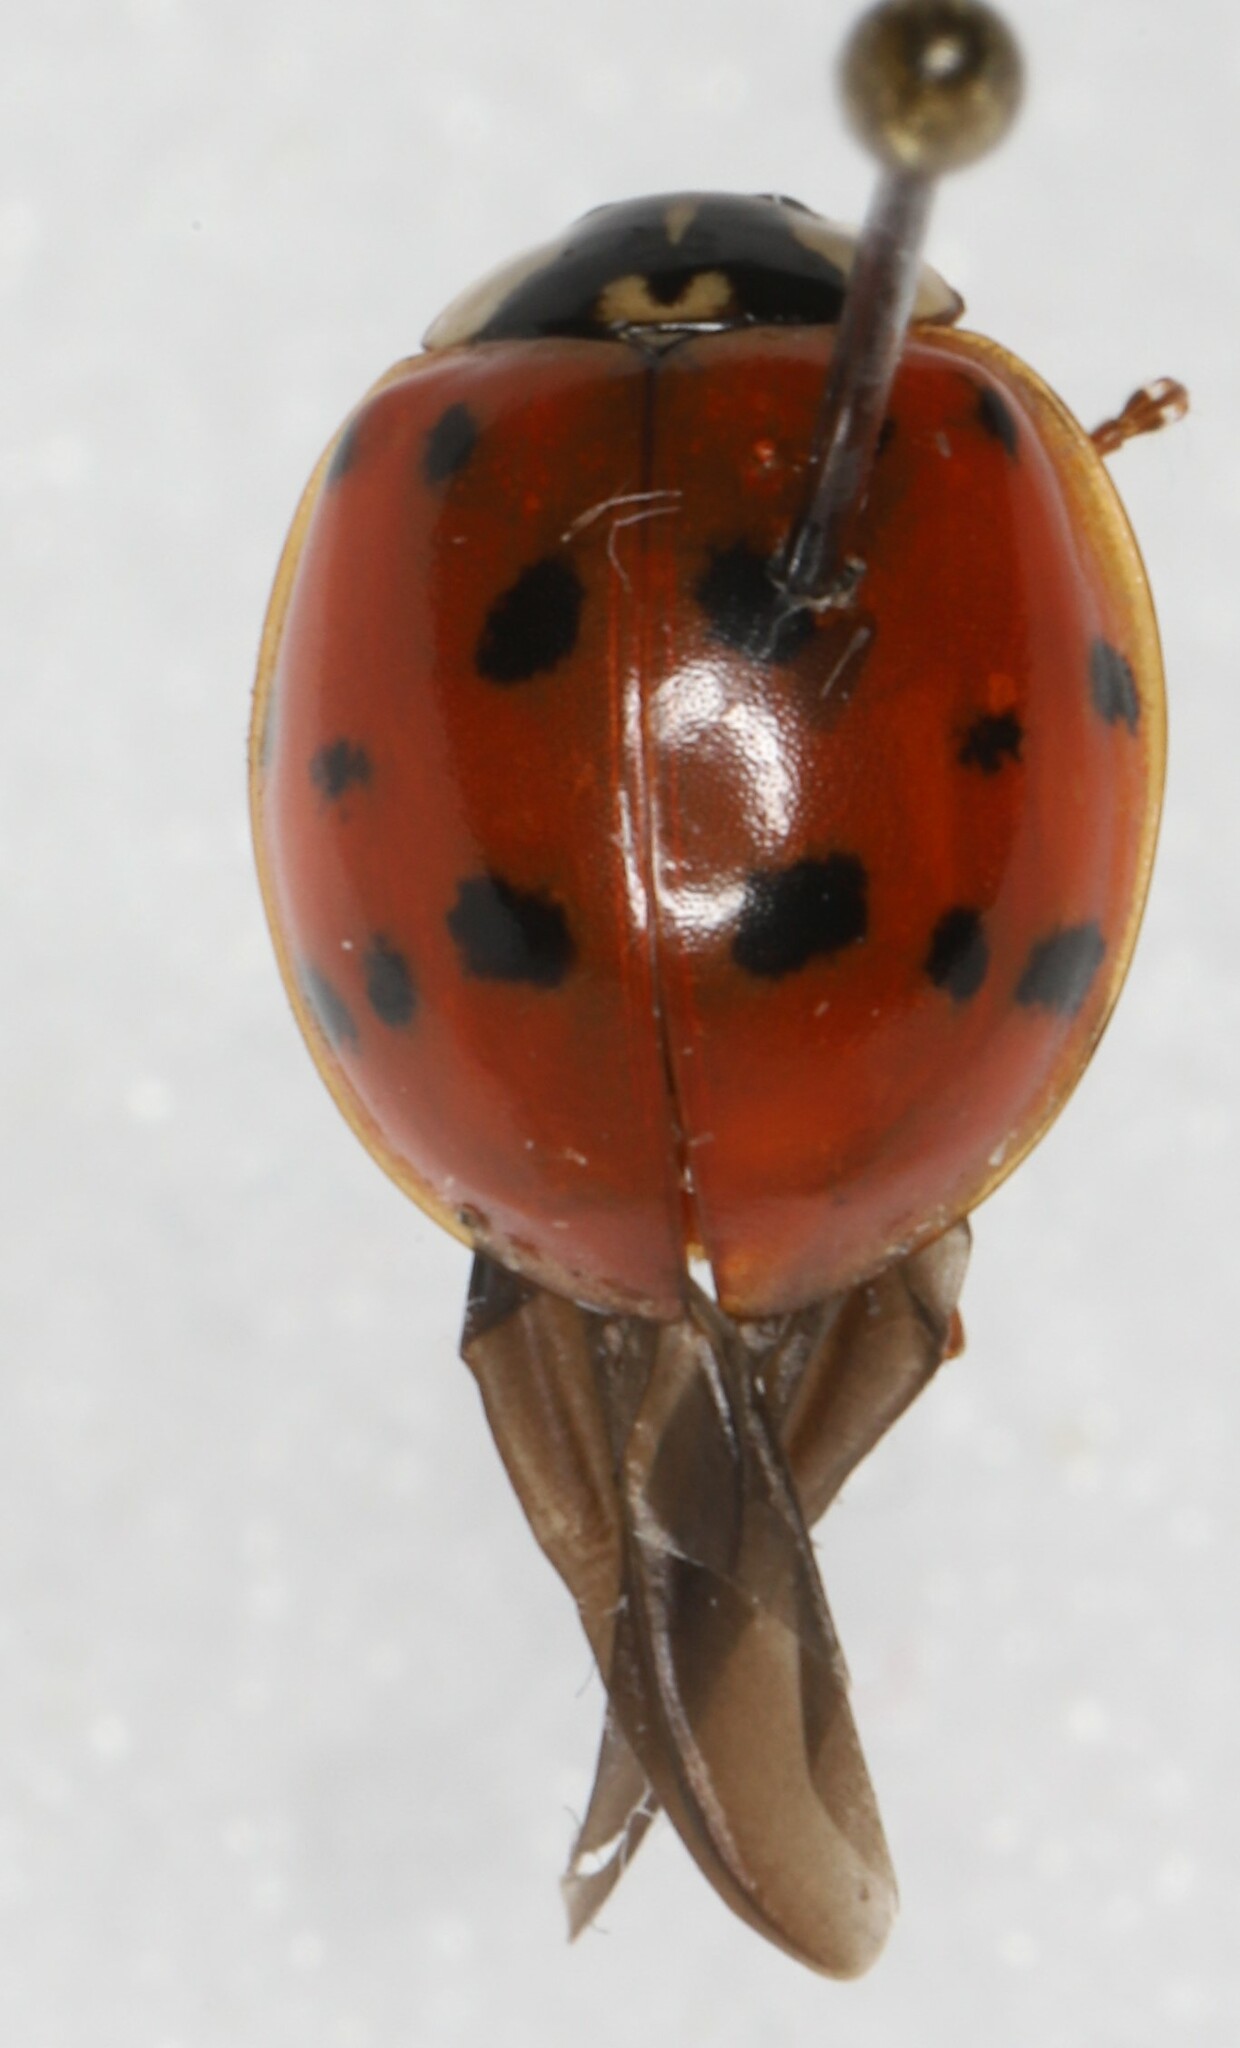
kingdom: Animalia
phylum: Arthropoda
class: Insecta
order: Coleoptera
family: Coccinellidae
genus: Harmonia
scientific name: Harmonia axyridis
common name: Harlequin ladybird
